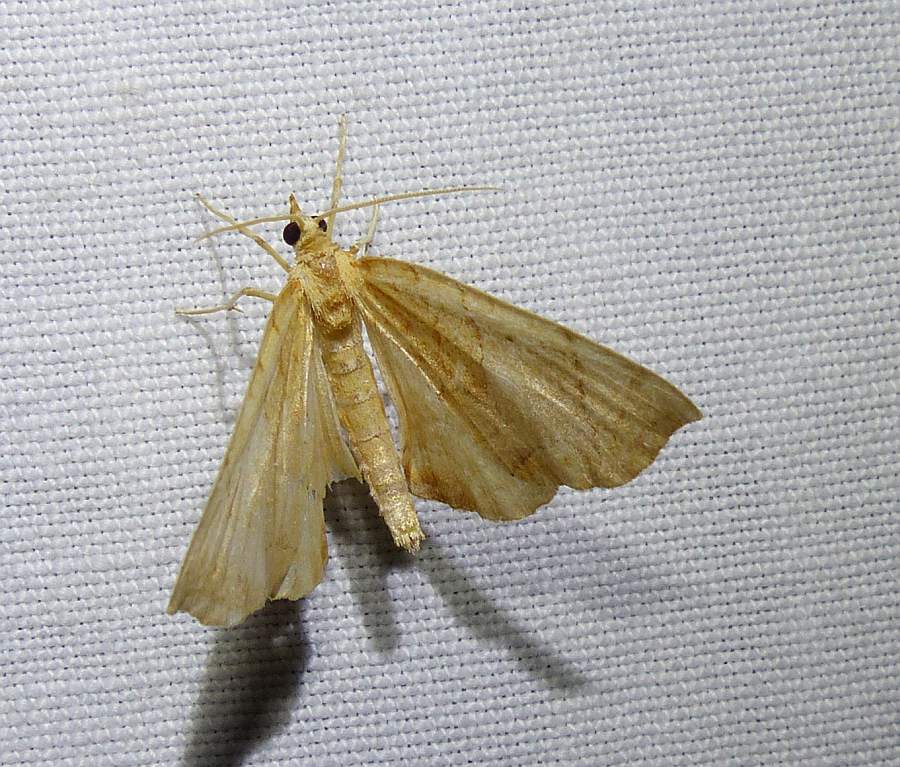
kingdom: Animalia
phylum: Arthropoda
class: Insecta
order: Lepidoptera
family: Geometridae
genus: Eulithis
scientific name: Eulithis
